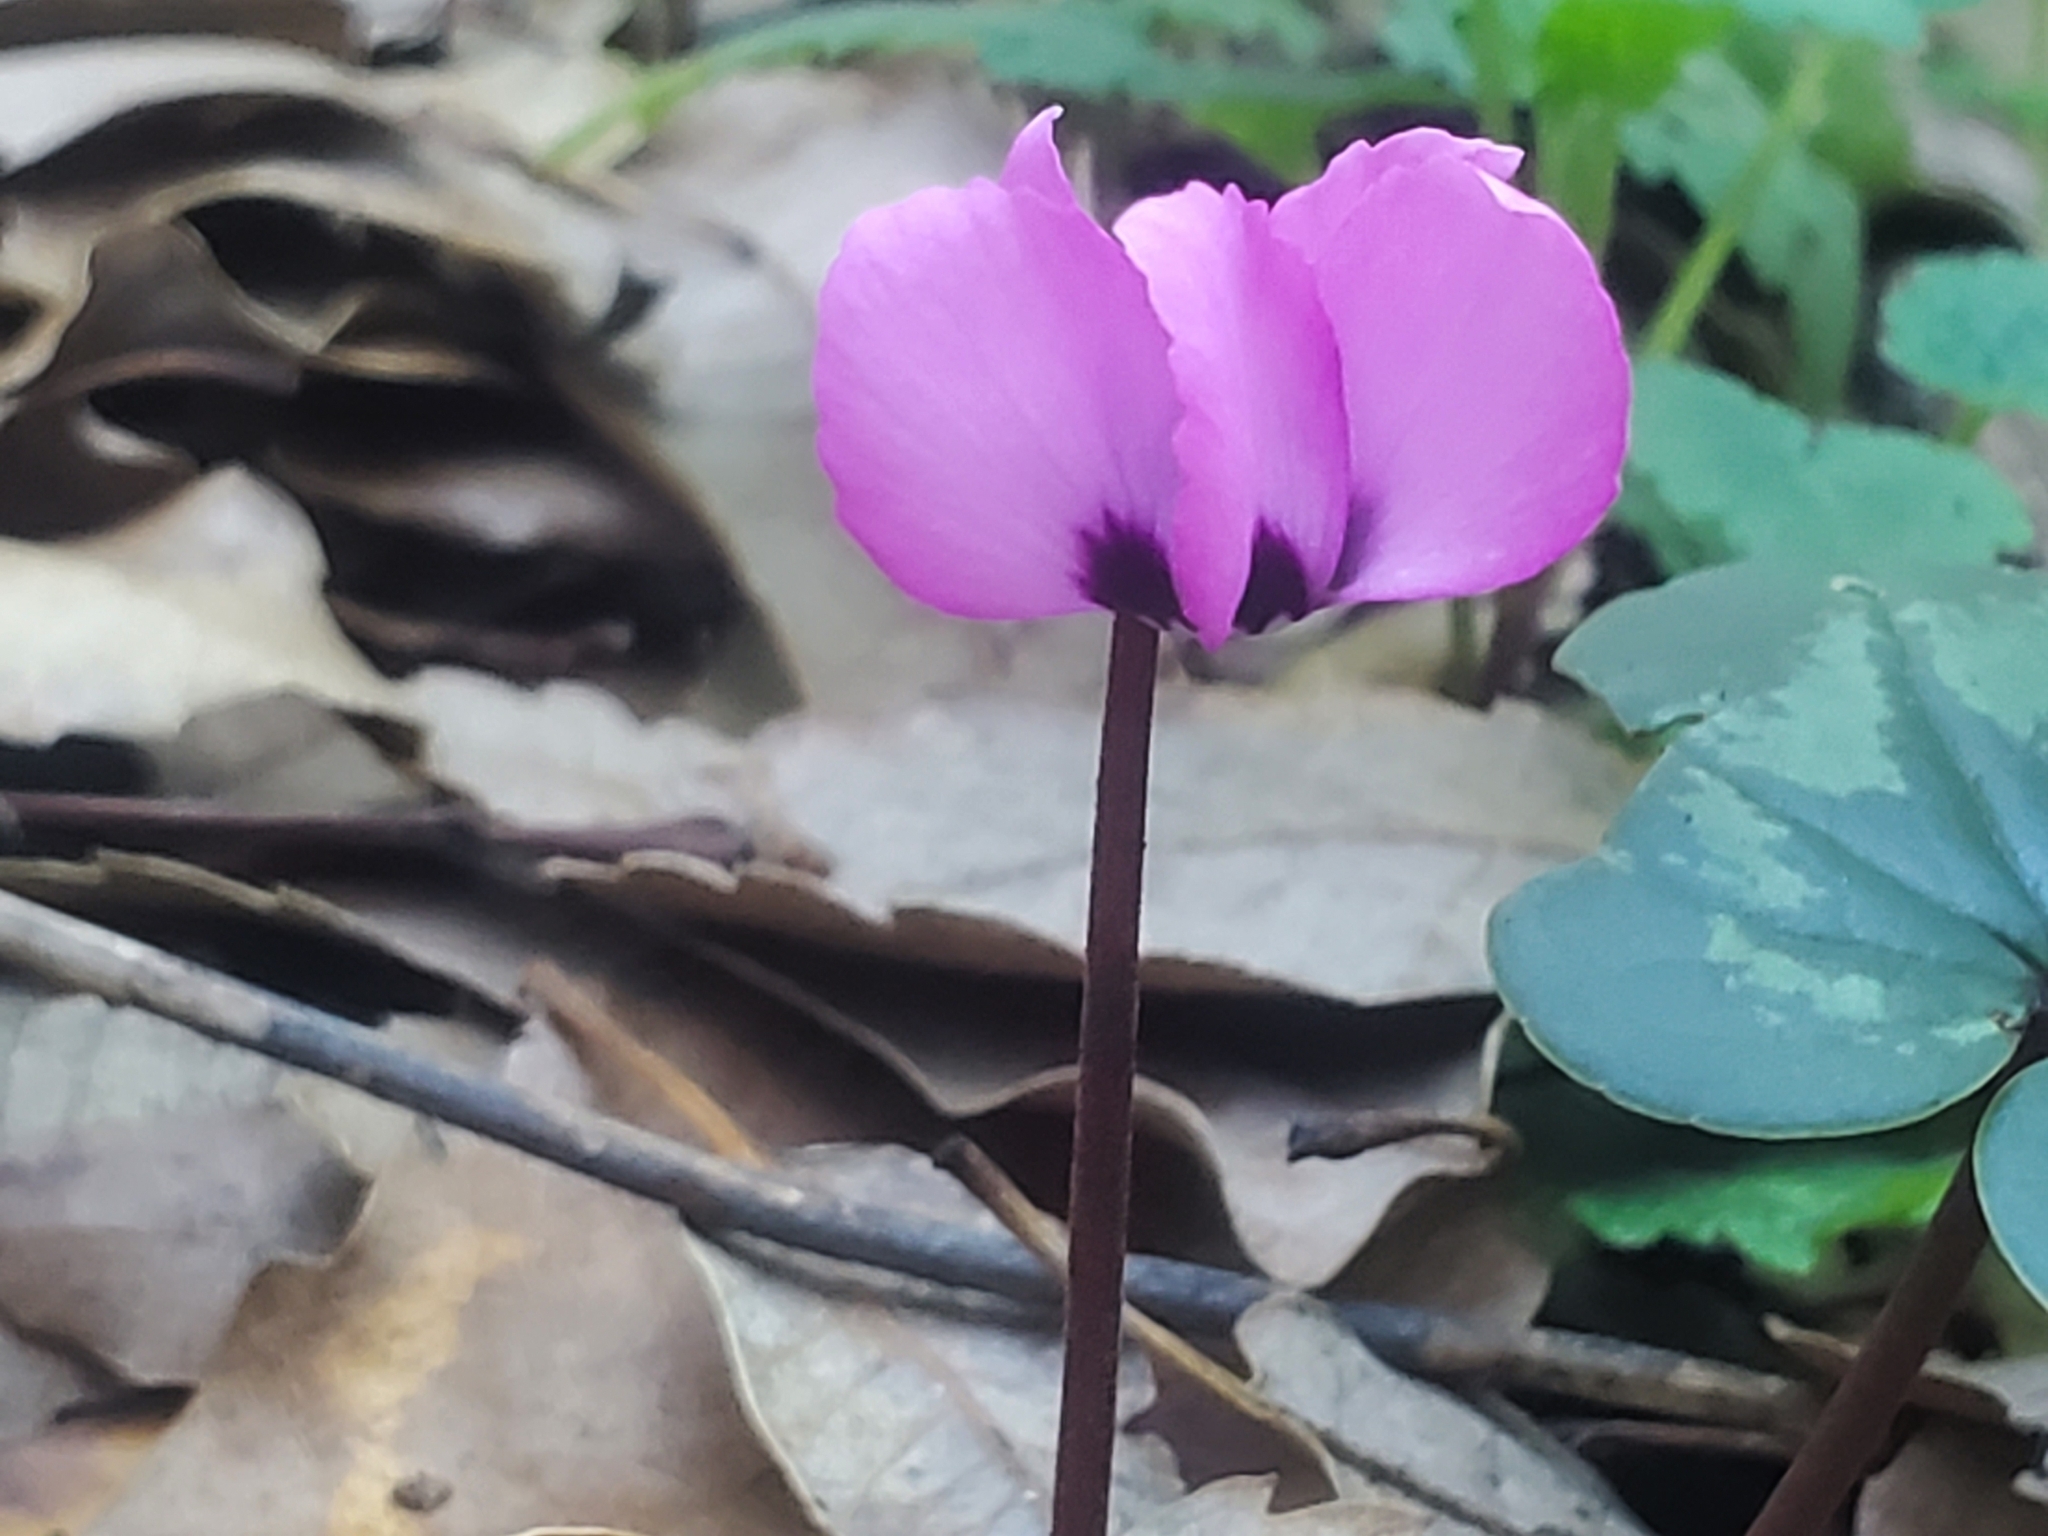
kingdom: Plantae
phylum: Tracheophyta
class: Magnoliopsida
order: Ericales
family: Primulaceae
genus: Cyclamen
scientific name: Cyclamen coum
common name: Eastern sowbread
